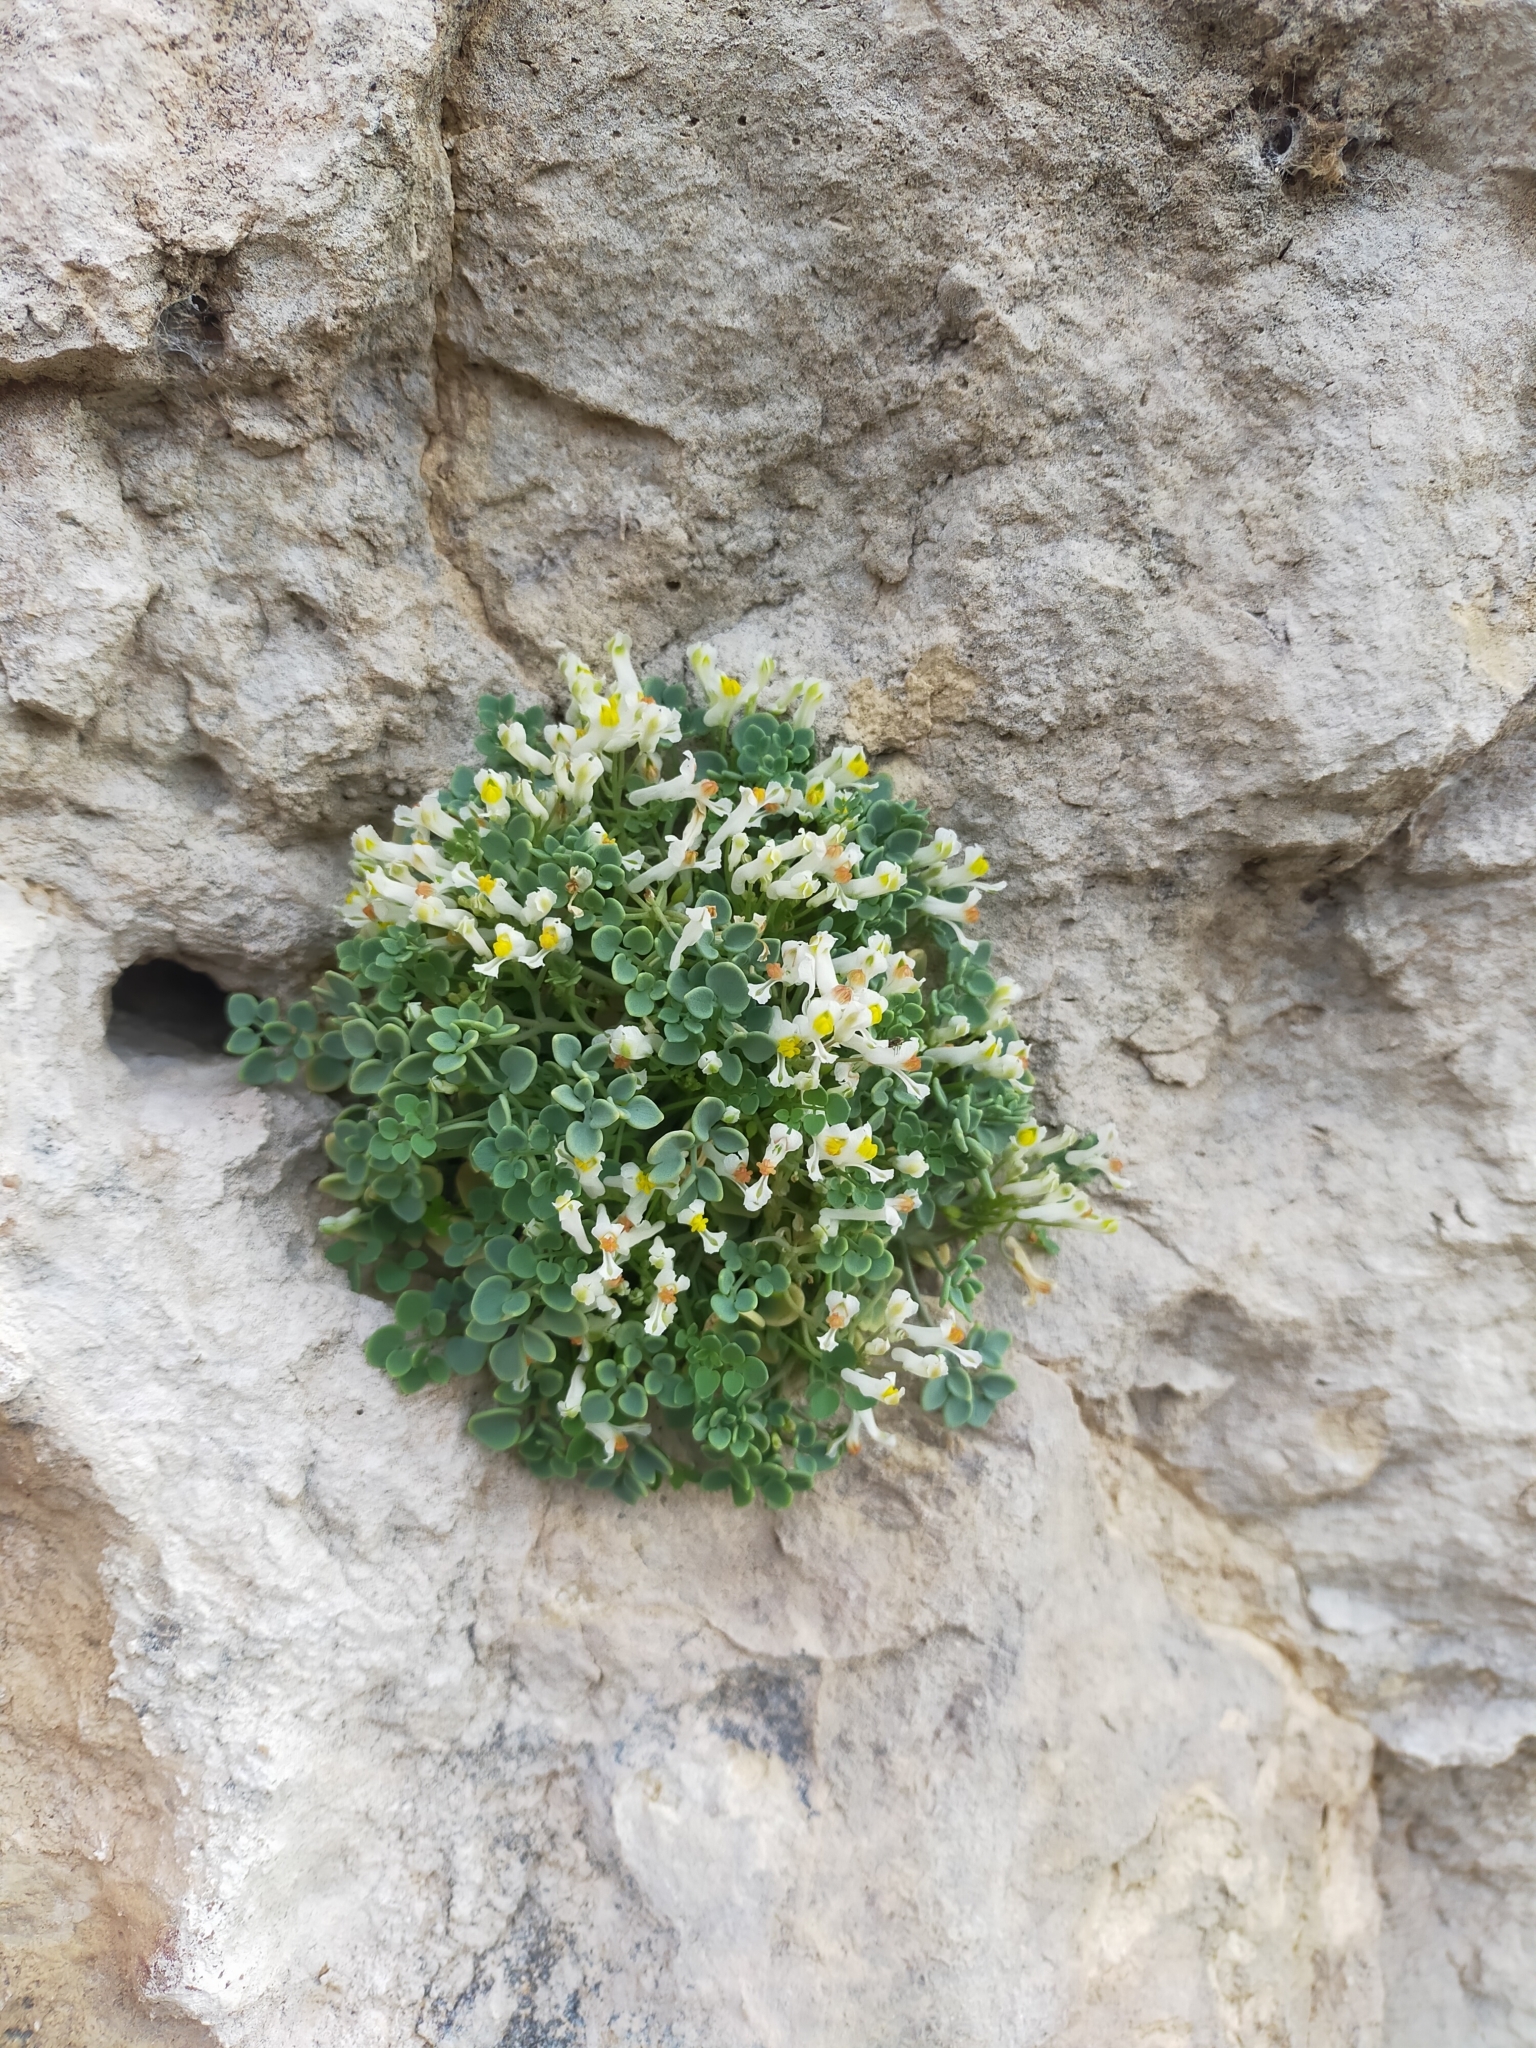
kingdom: Plantae
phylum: Tracheophyta
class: Magnoliopsida
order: Ranunculales
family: Papaveraceae
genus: Sarcocapnos
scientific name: Sarcocapnos enneaphylla
